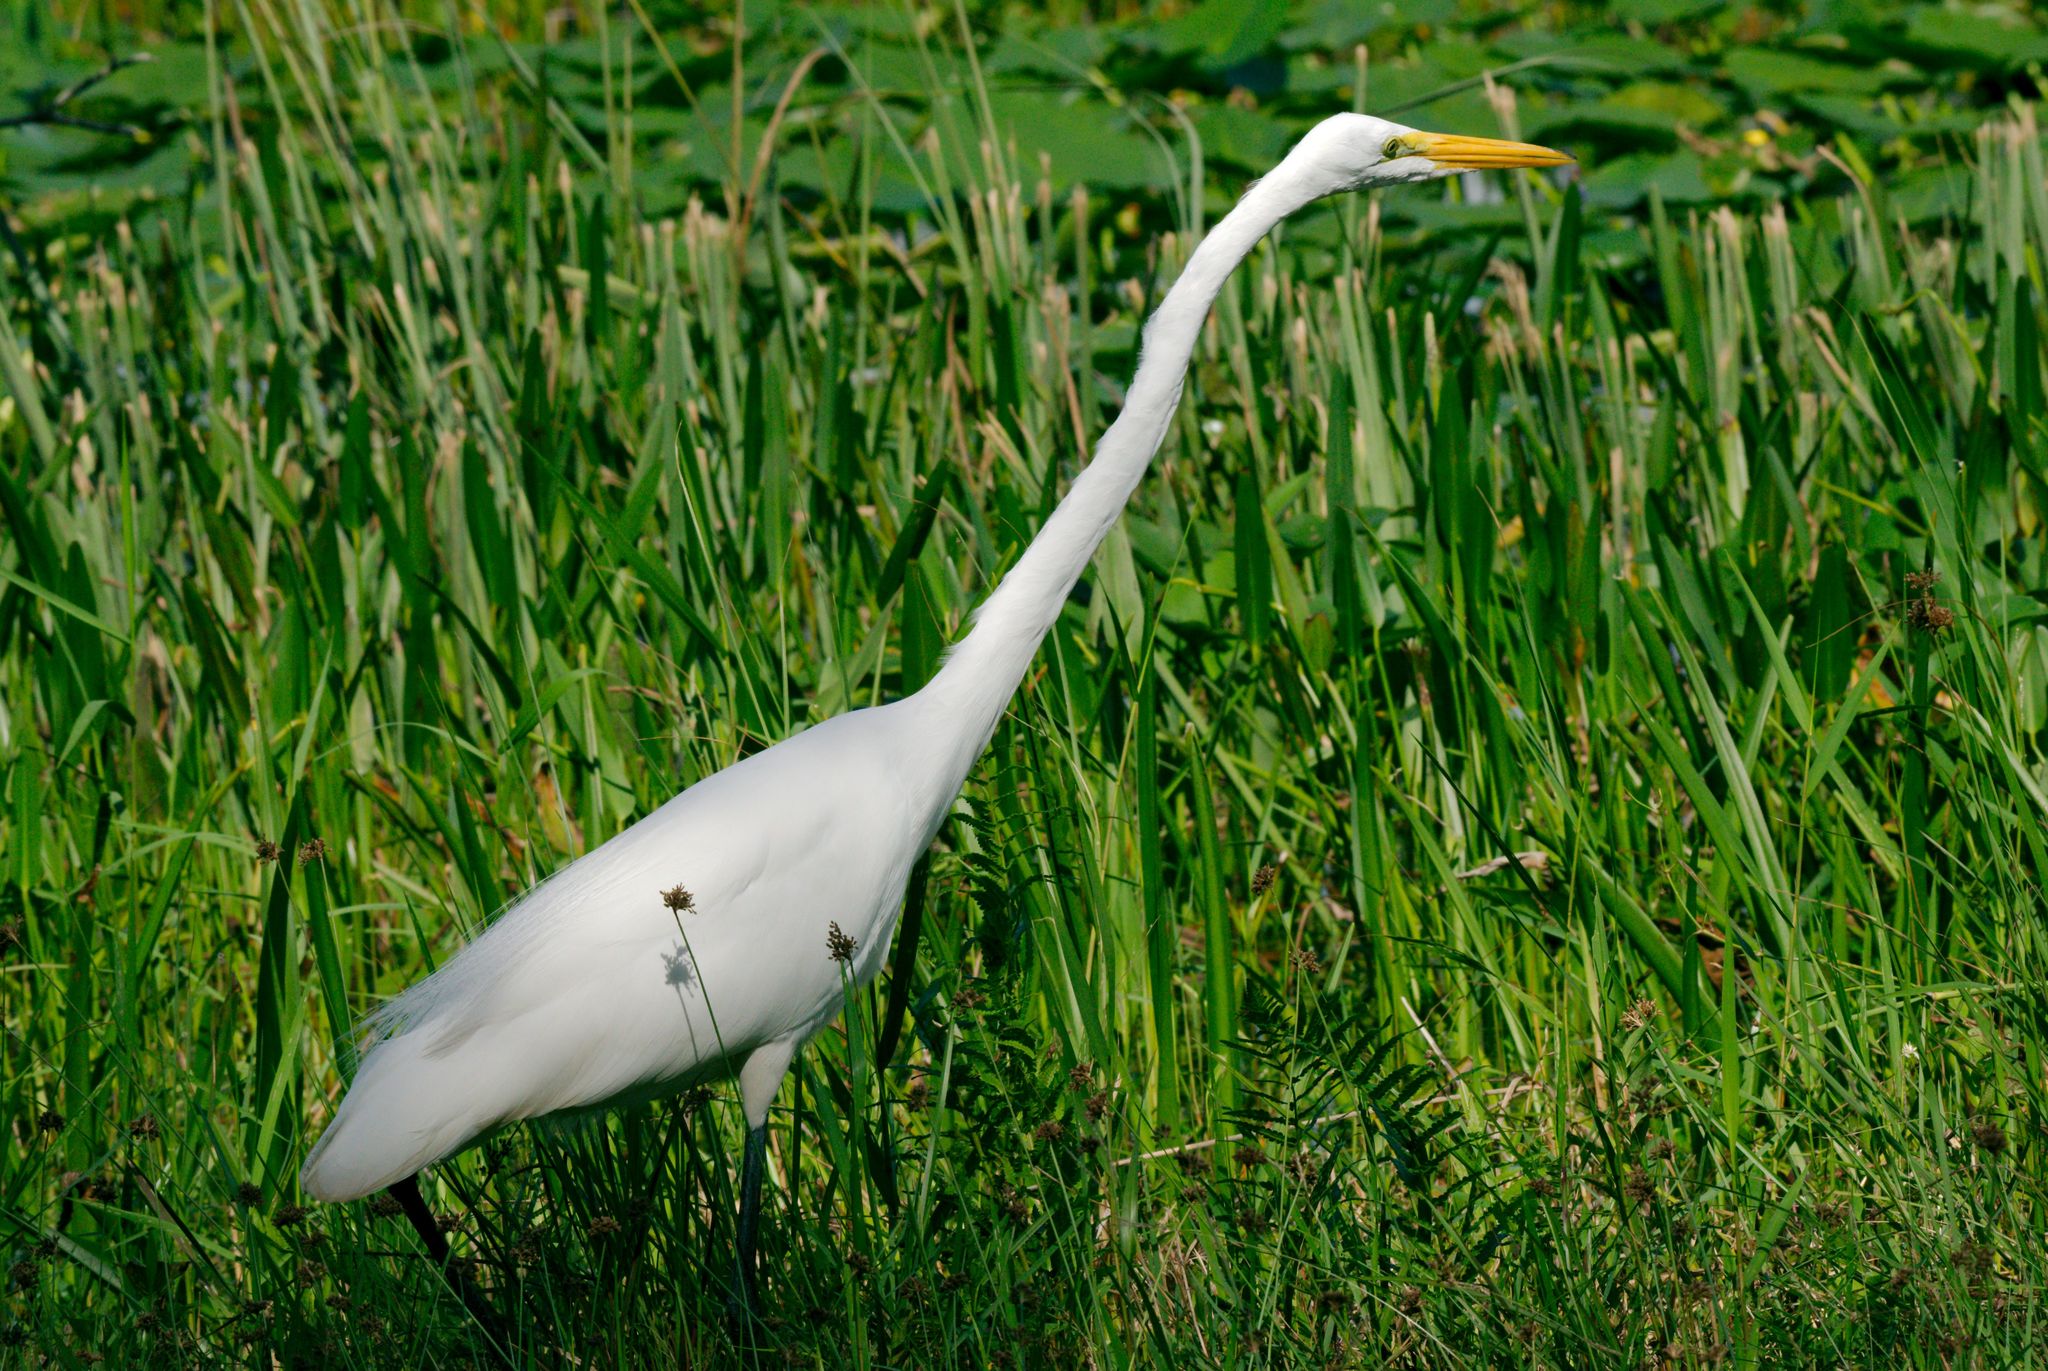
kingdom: Animalia
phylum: Chordata
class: Aves
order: Pelecaniformes
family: Ardeidae
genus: Ardea
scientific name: Ardea alba
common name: Great egret
